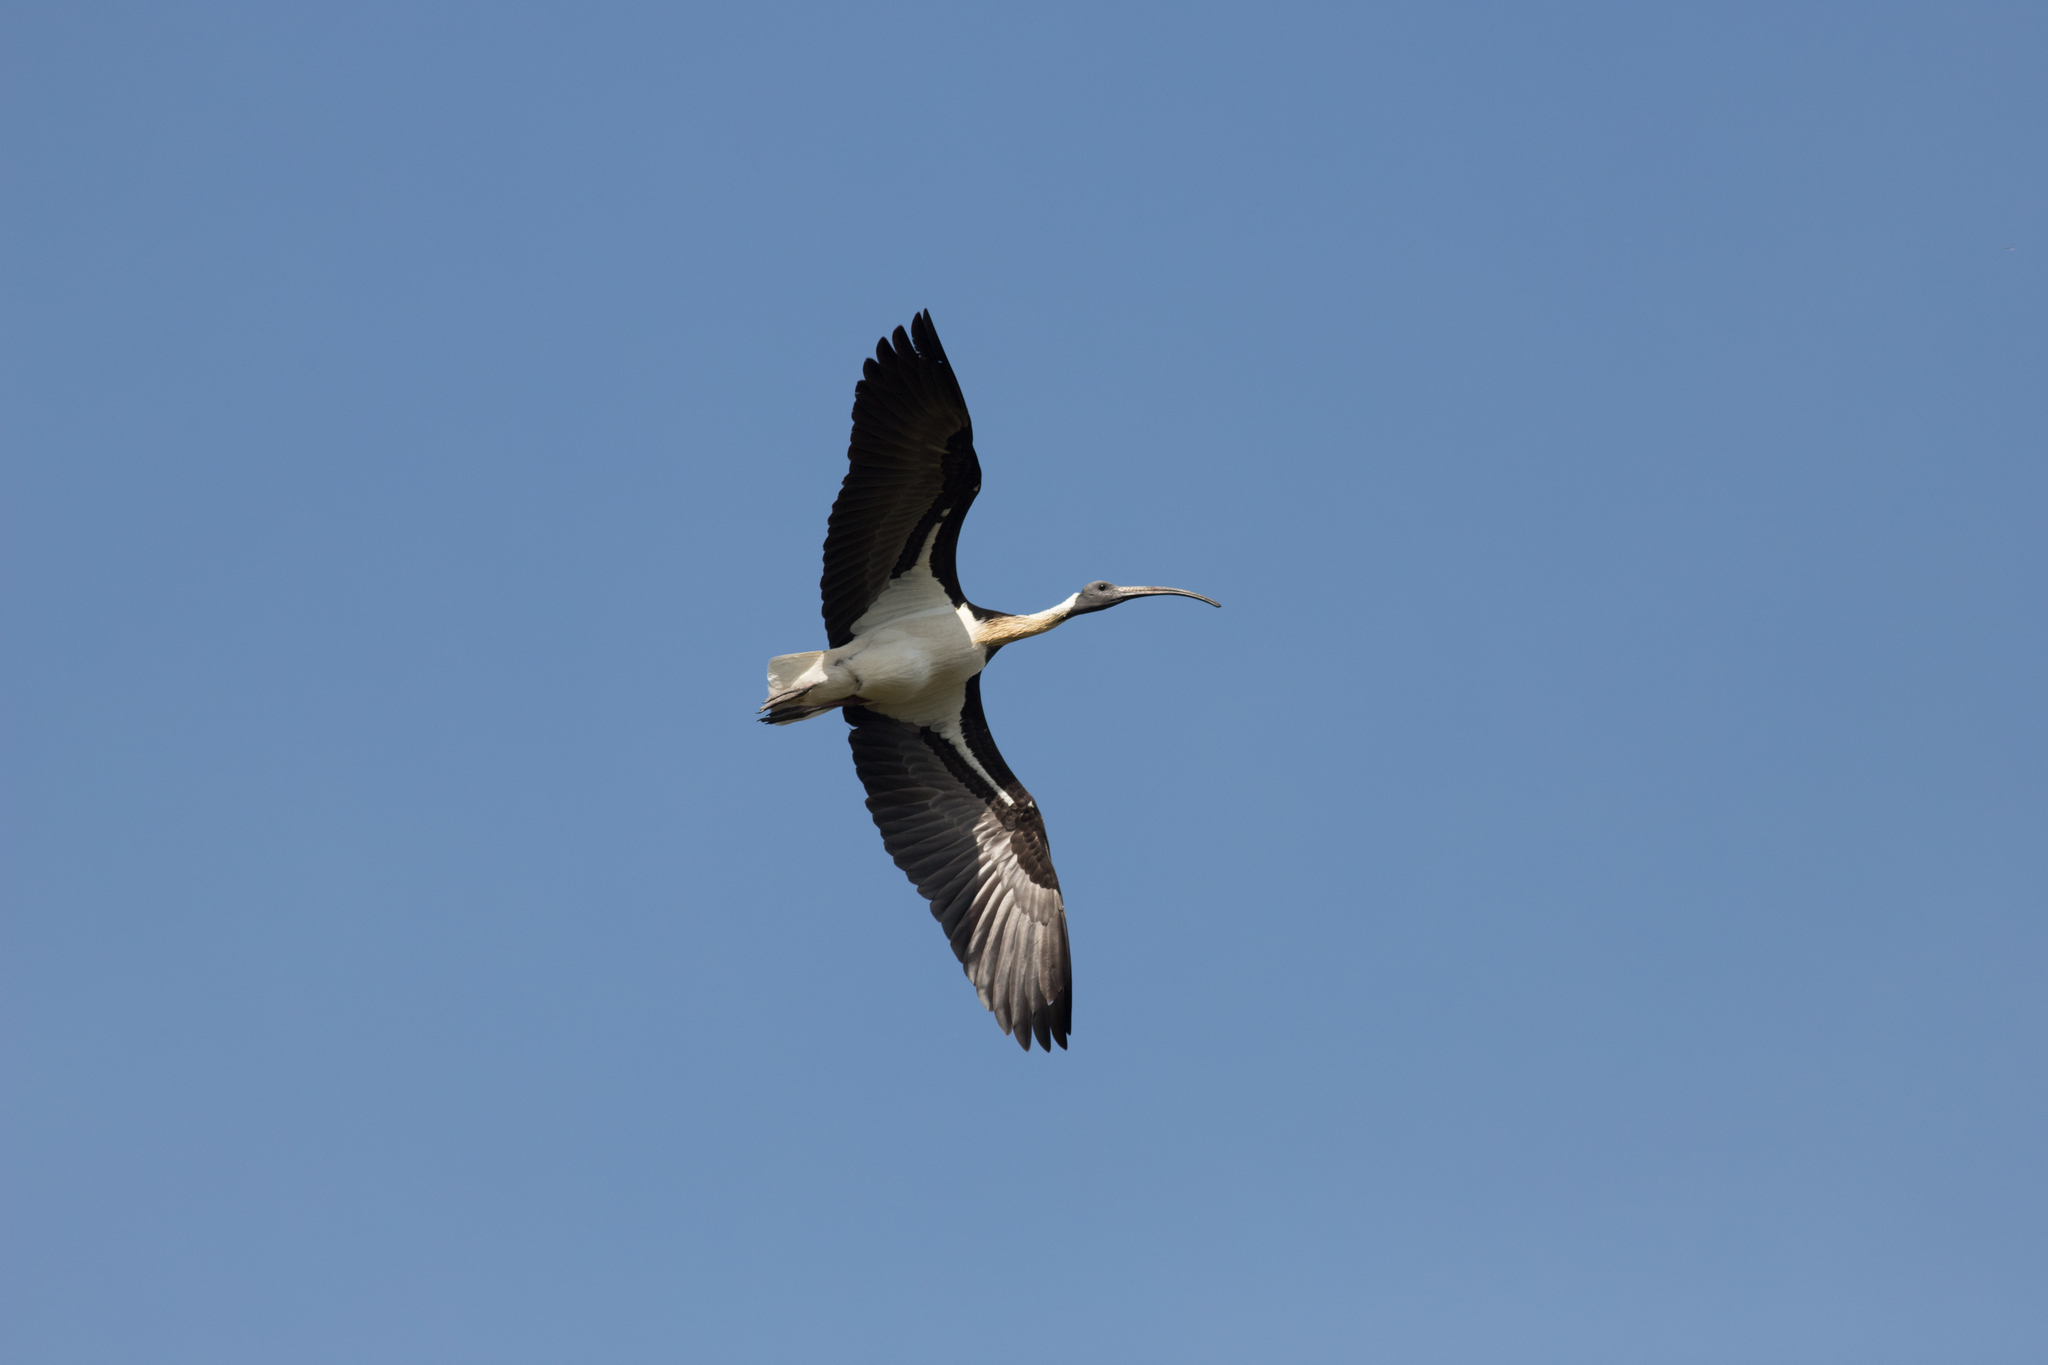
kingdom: Animalia
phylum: Chordata
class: Aves
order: Pelecaniformes
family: Threskiornithidae
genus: Threskiornis
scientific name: Threskiornis spinicollis
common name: Straw-necked ibis
